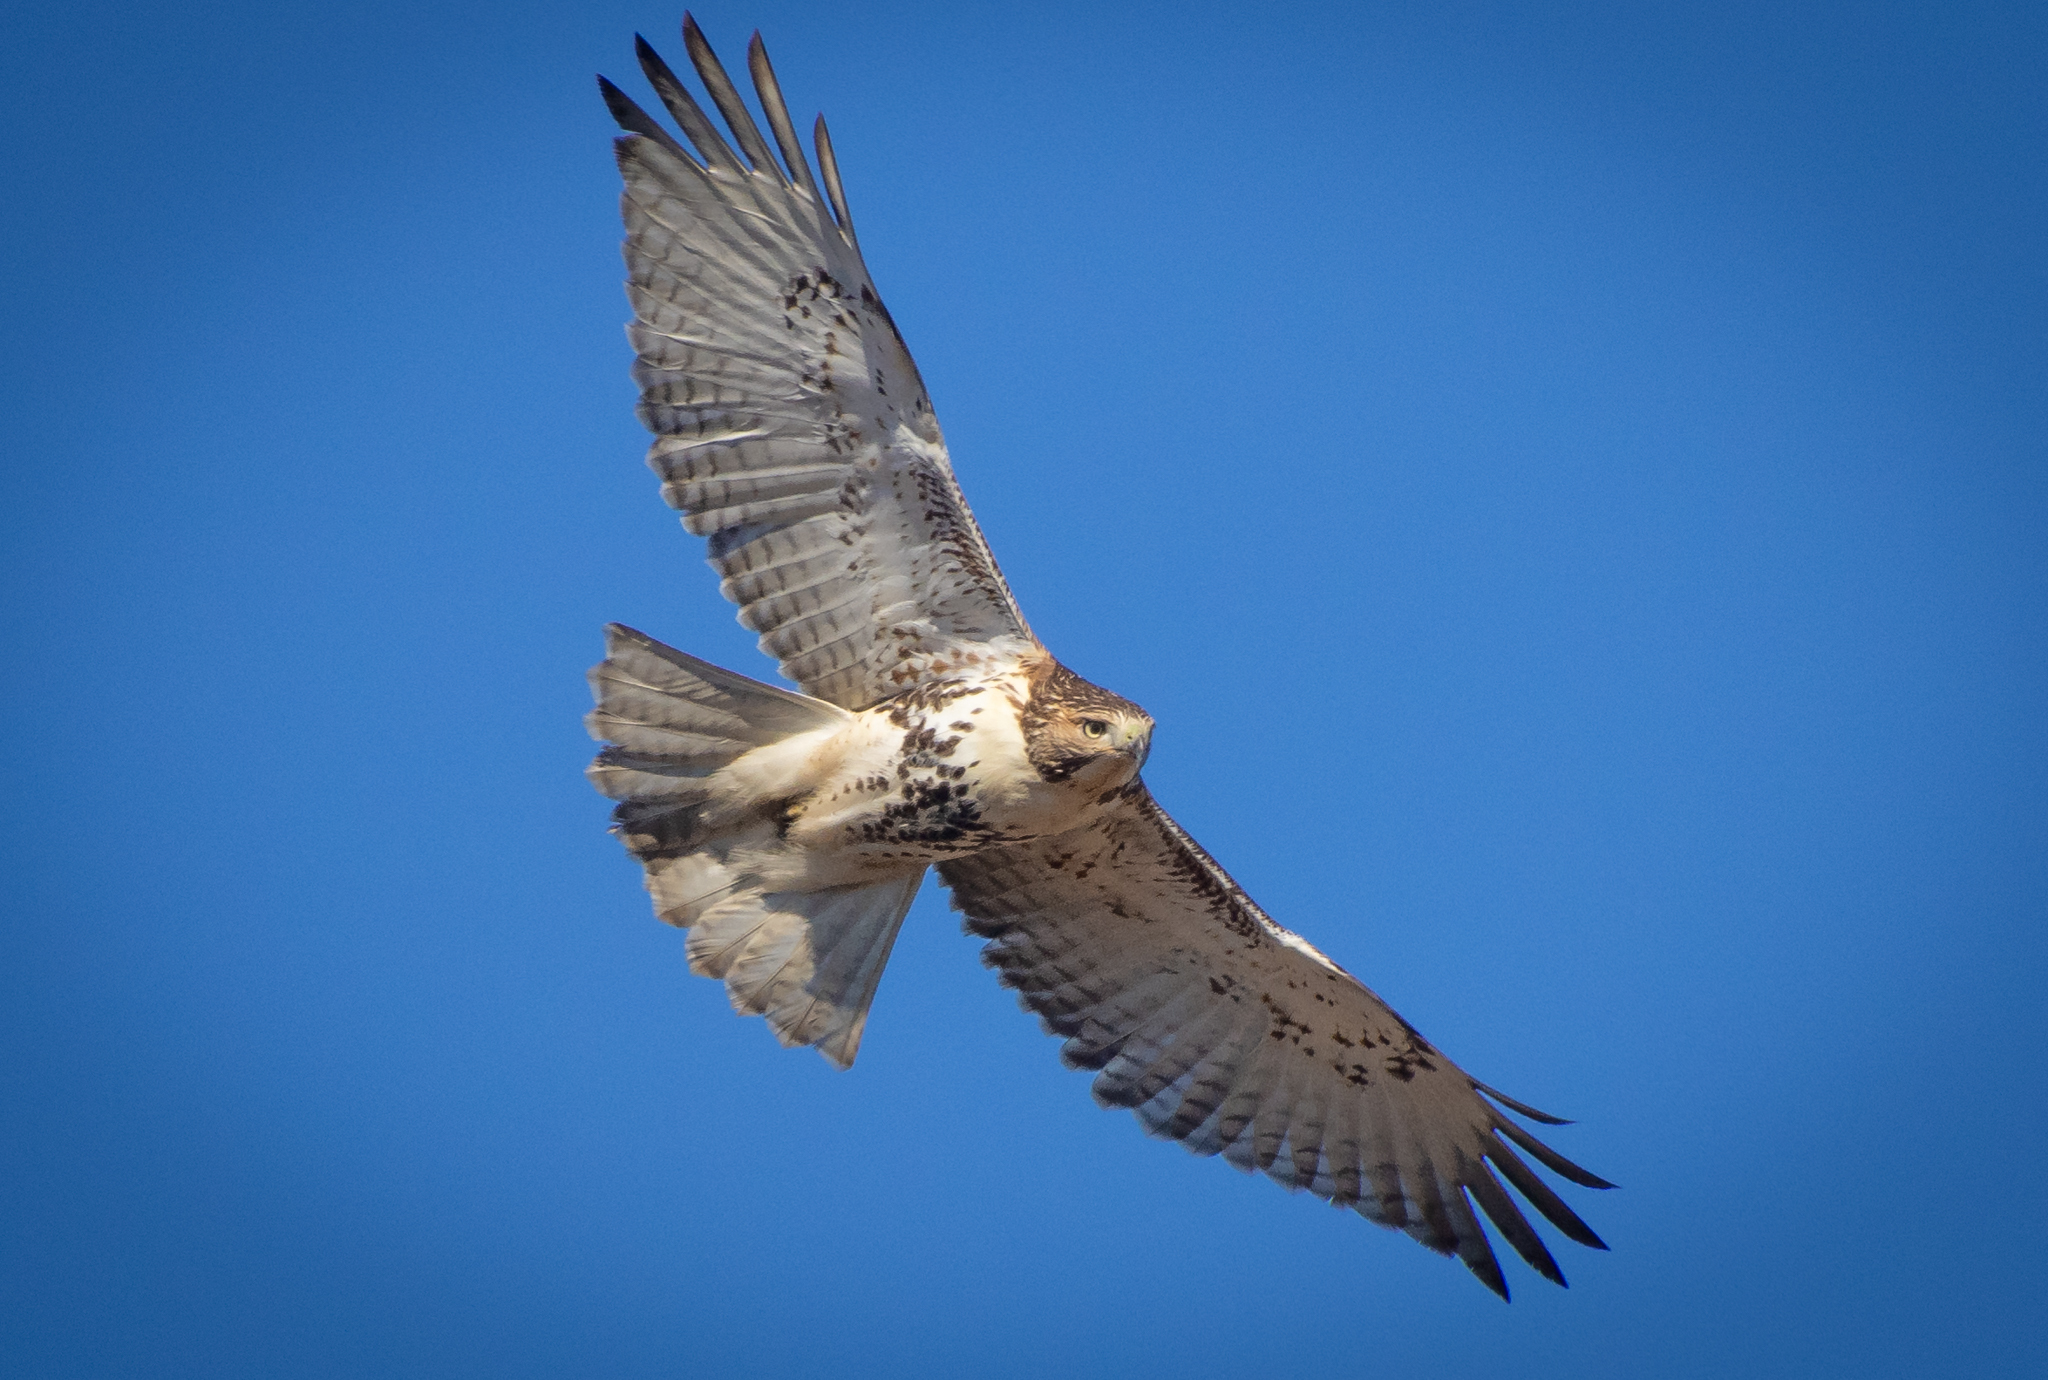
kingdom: Animalia
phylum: Chordata
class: Aves
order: Accipitriformes
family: Accipitridae
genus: Buteo
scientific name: Buteo jamaicensis
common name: Red-tailed hawk
